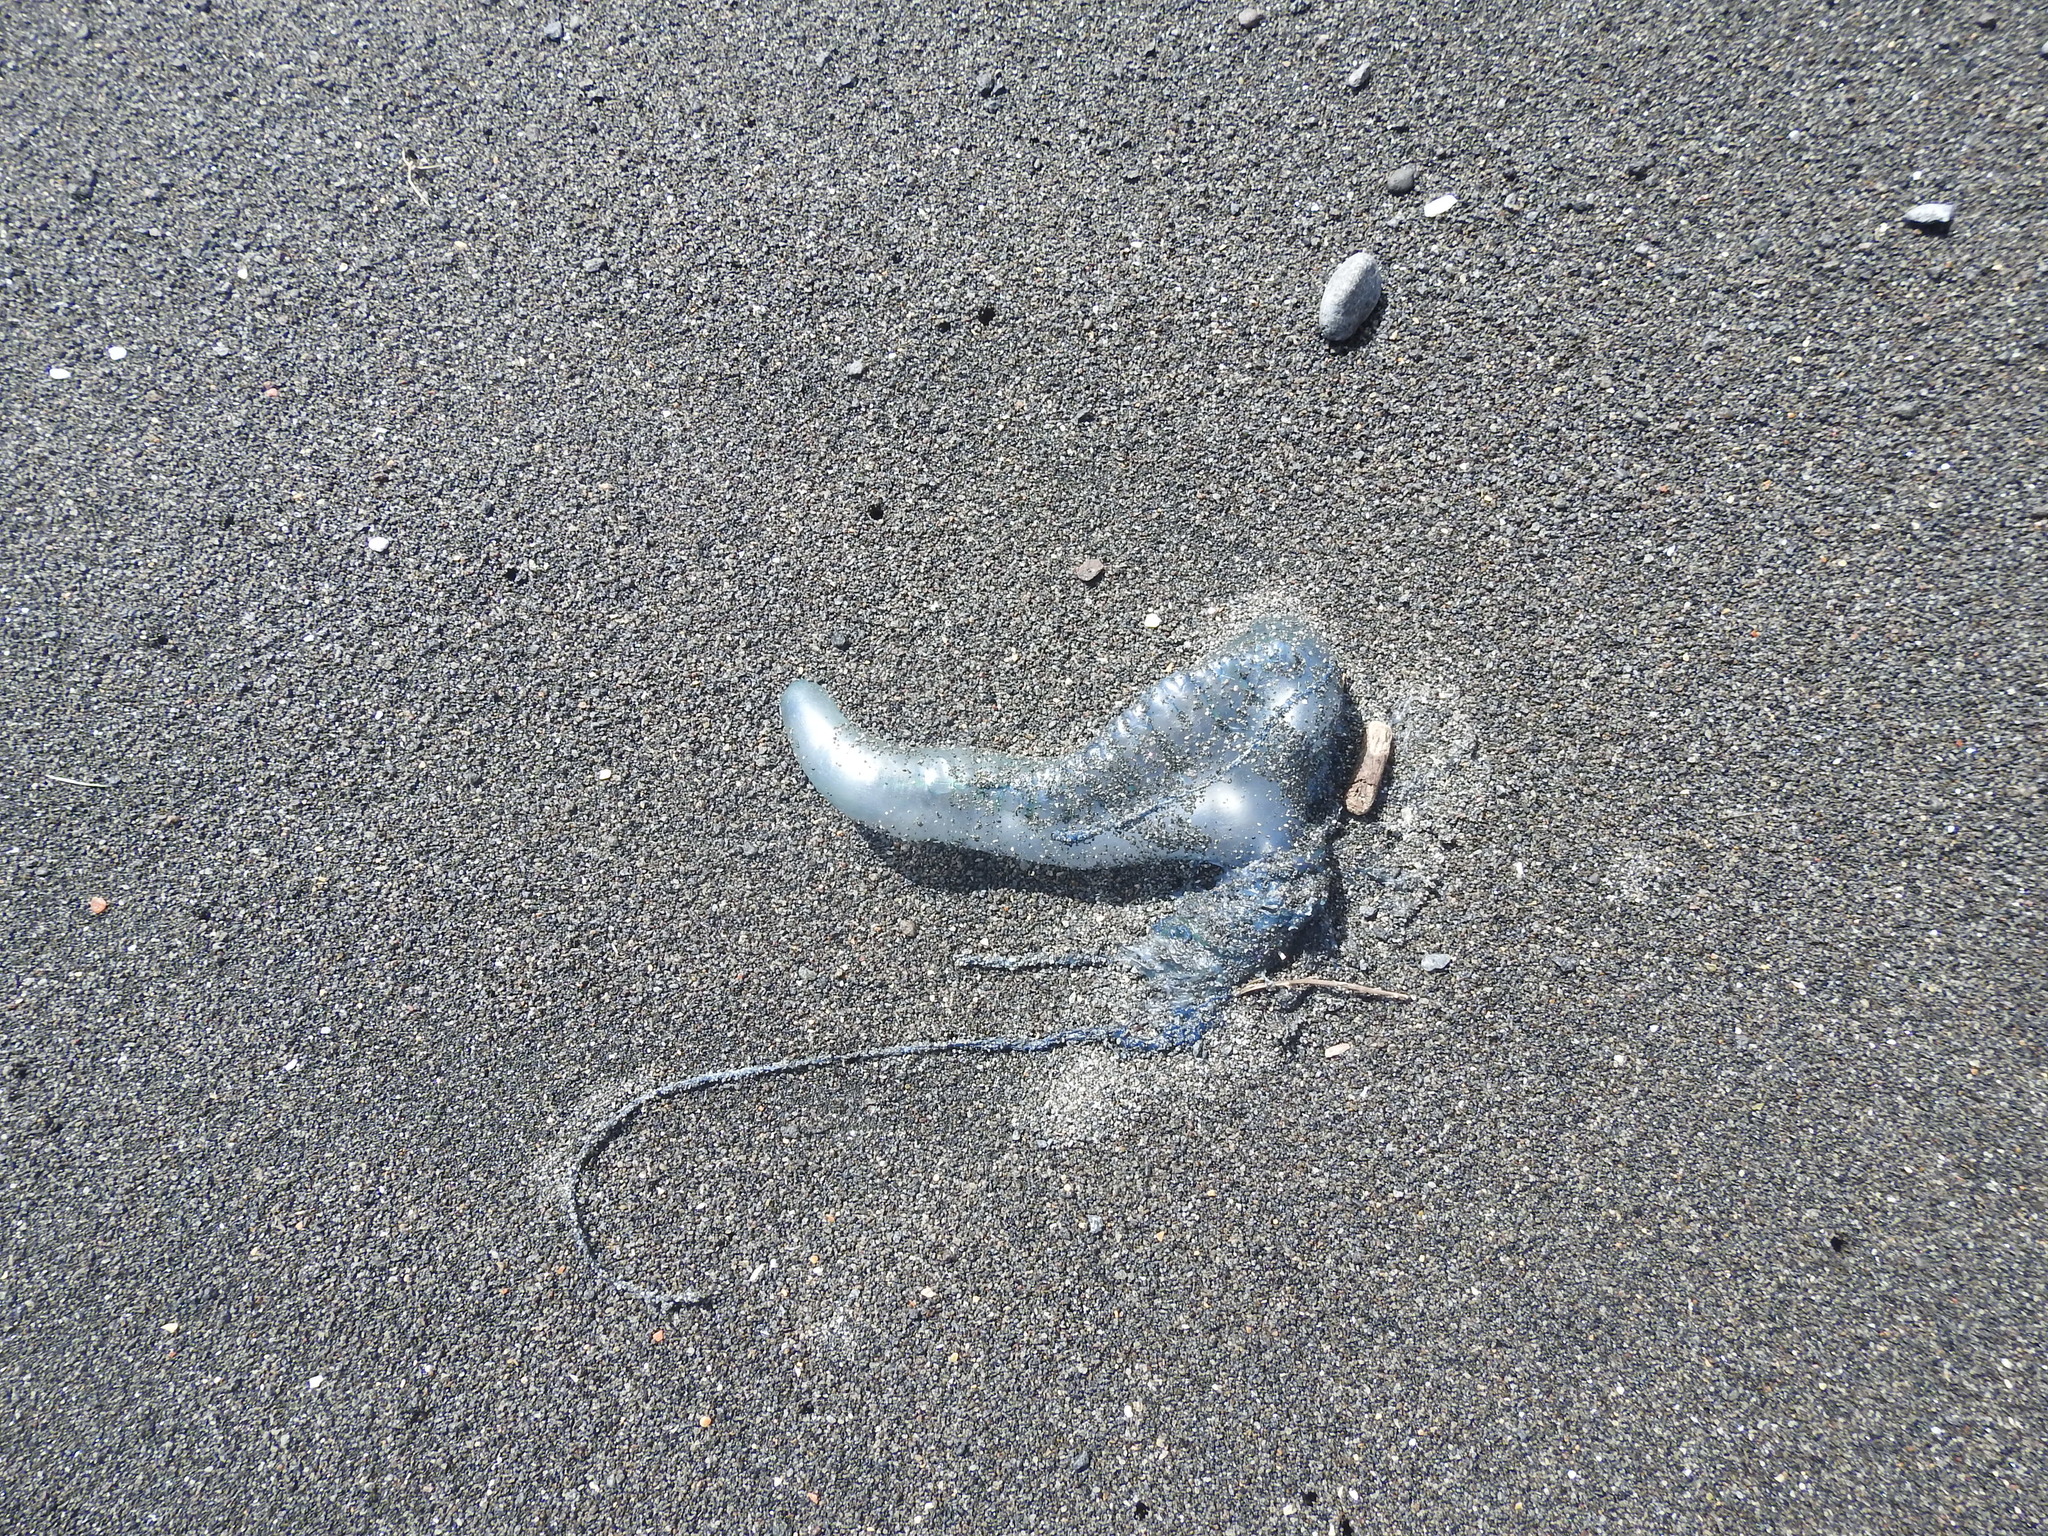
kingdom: Animalia
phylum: Cnidaria
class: Hydrozoa
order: Siphonophorae
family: Physaliidae
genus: Physalia
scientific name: Physalia physalis
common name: Portuguese man-of-war
